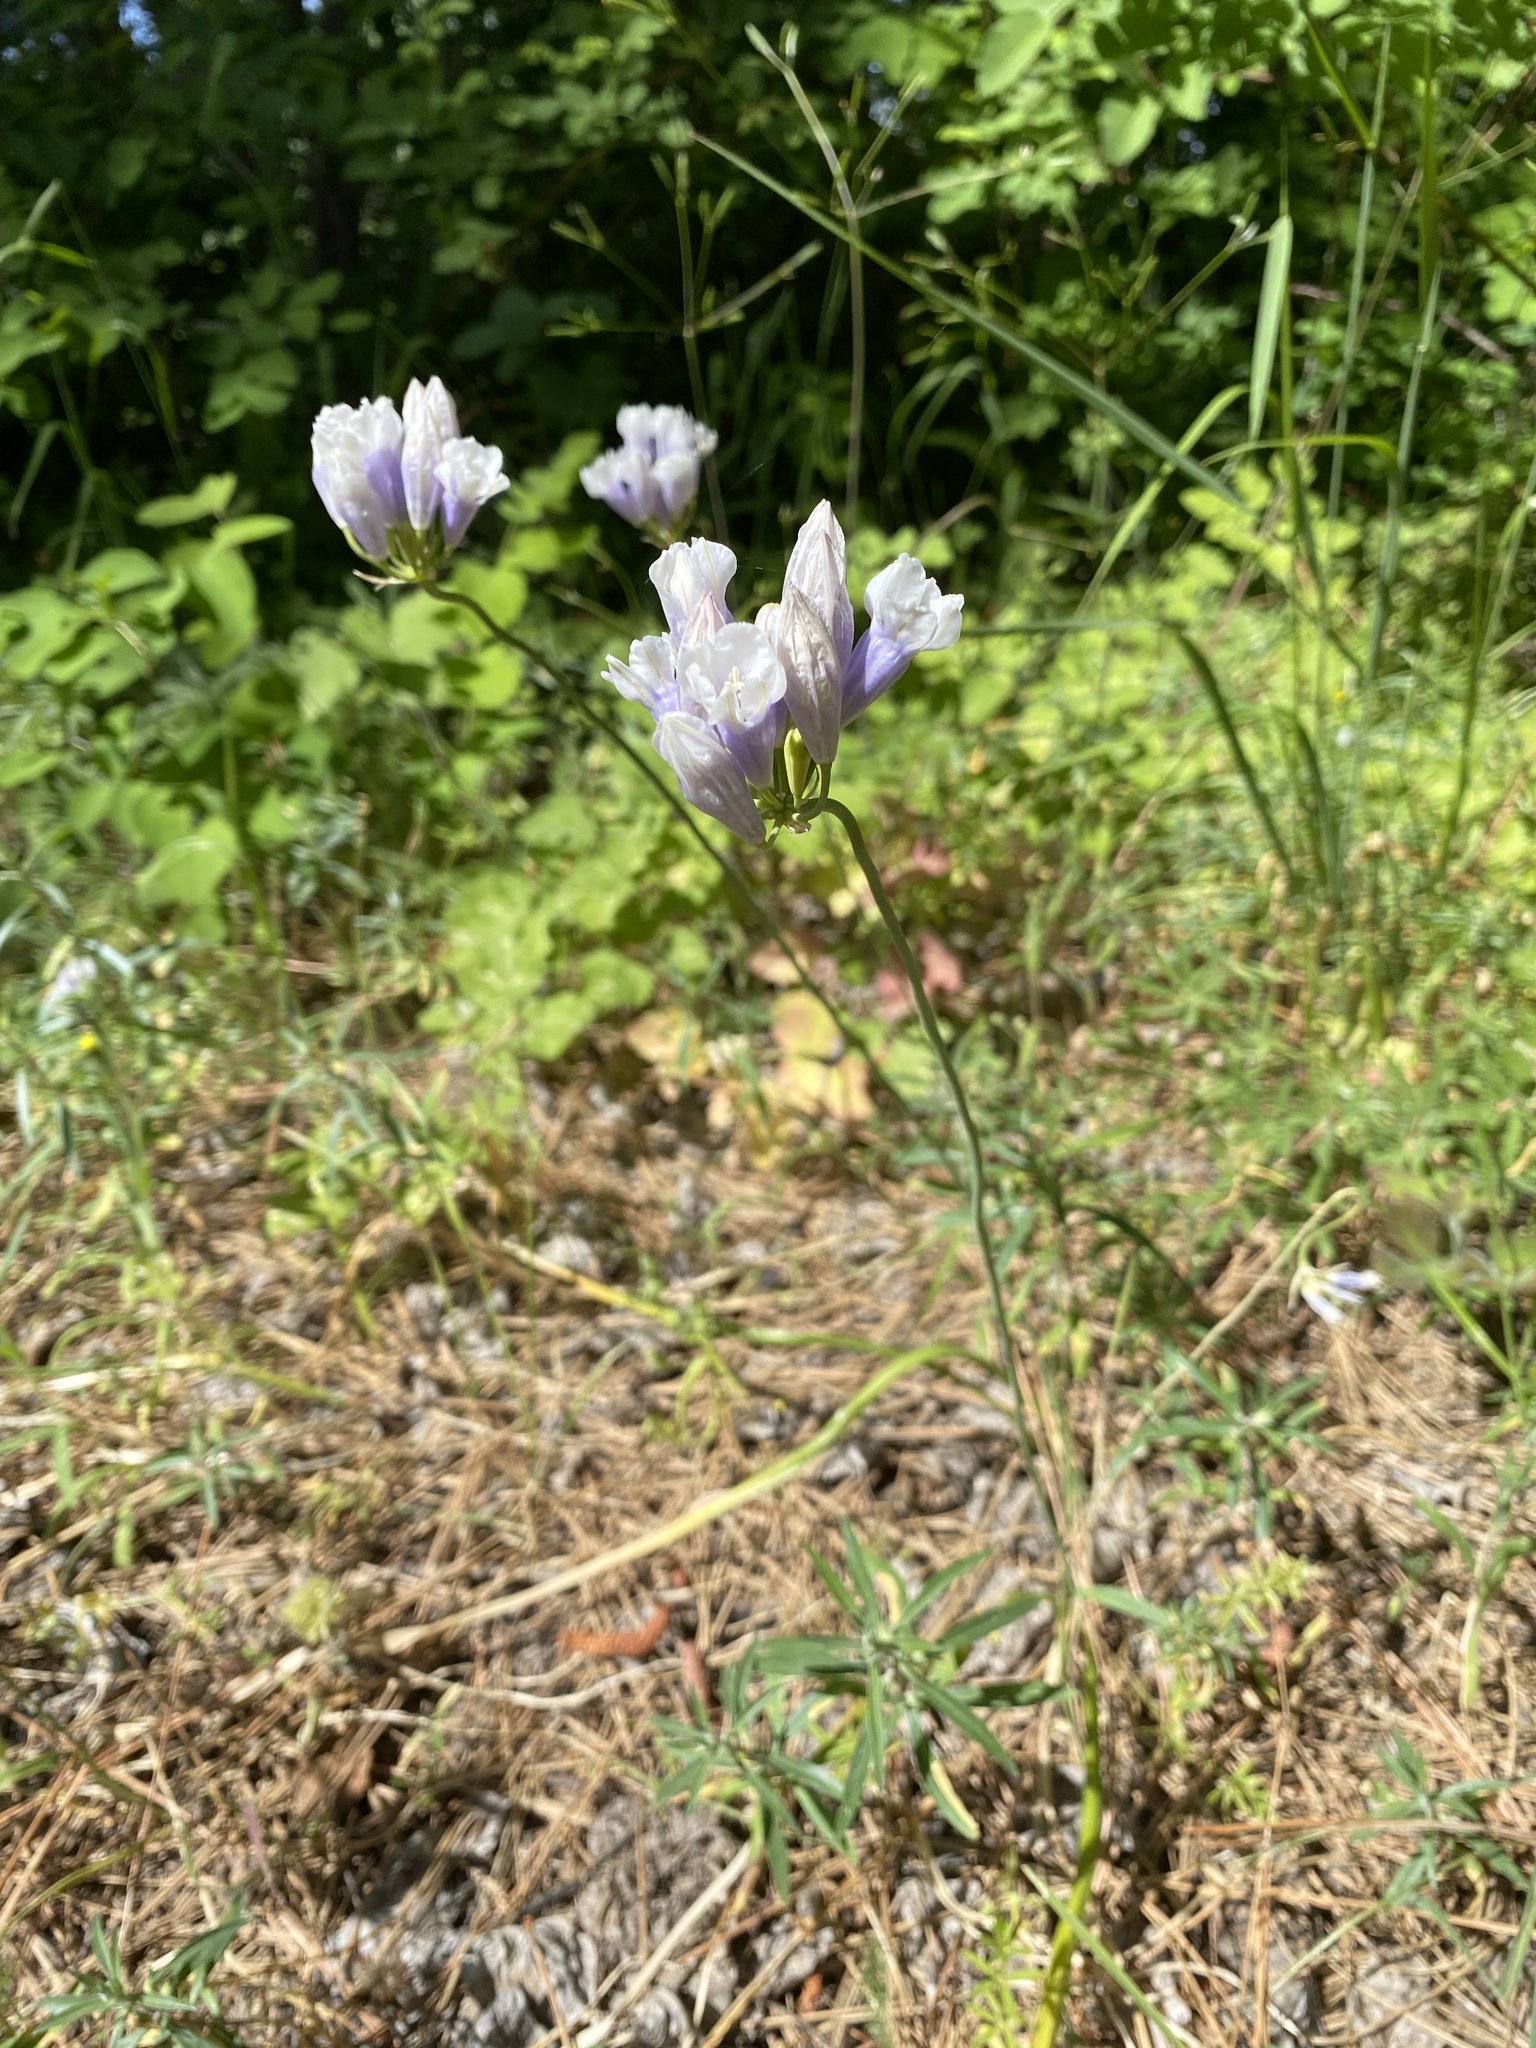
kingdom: Plantae
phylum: Tracheophyta
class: Liliopsida
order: Asparagales
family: Asparagaceae
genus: Triteleia
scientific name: Triteleia grandiflora
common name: Wild hyacinth
